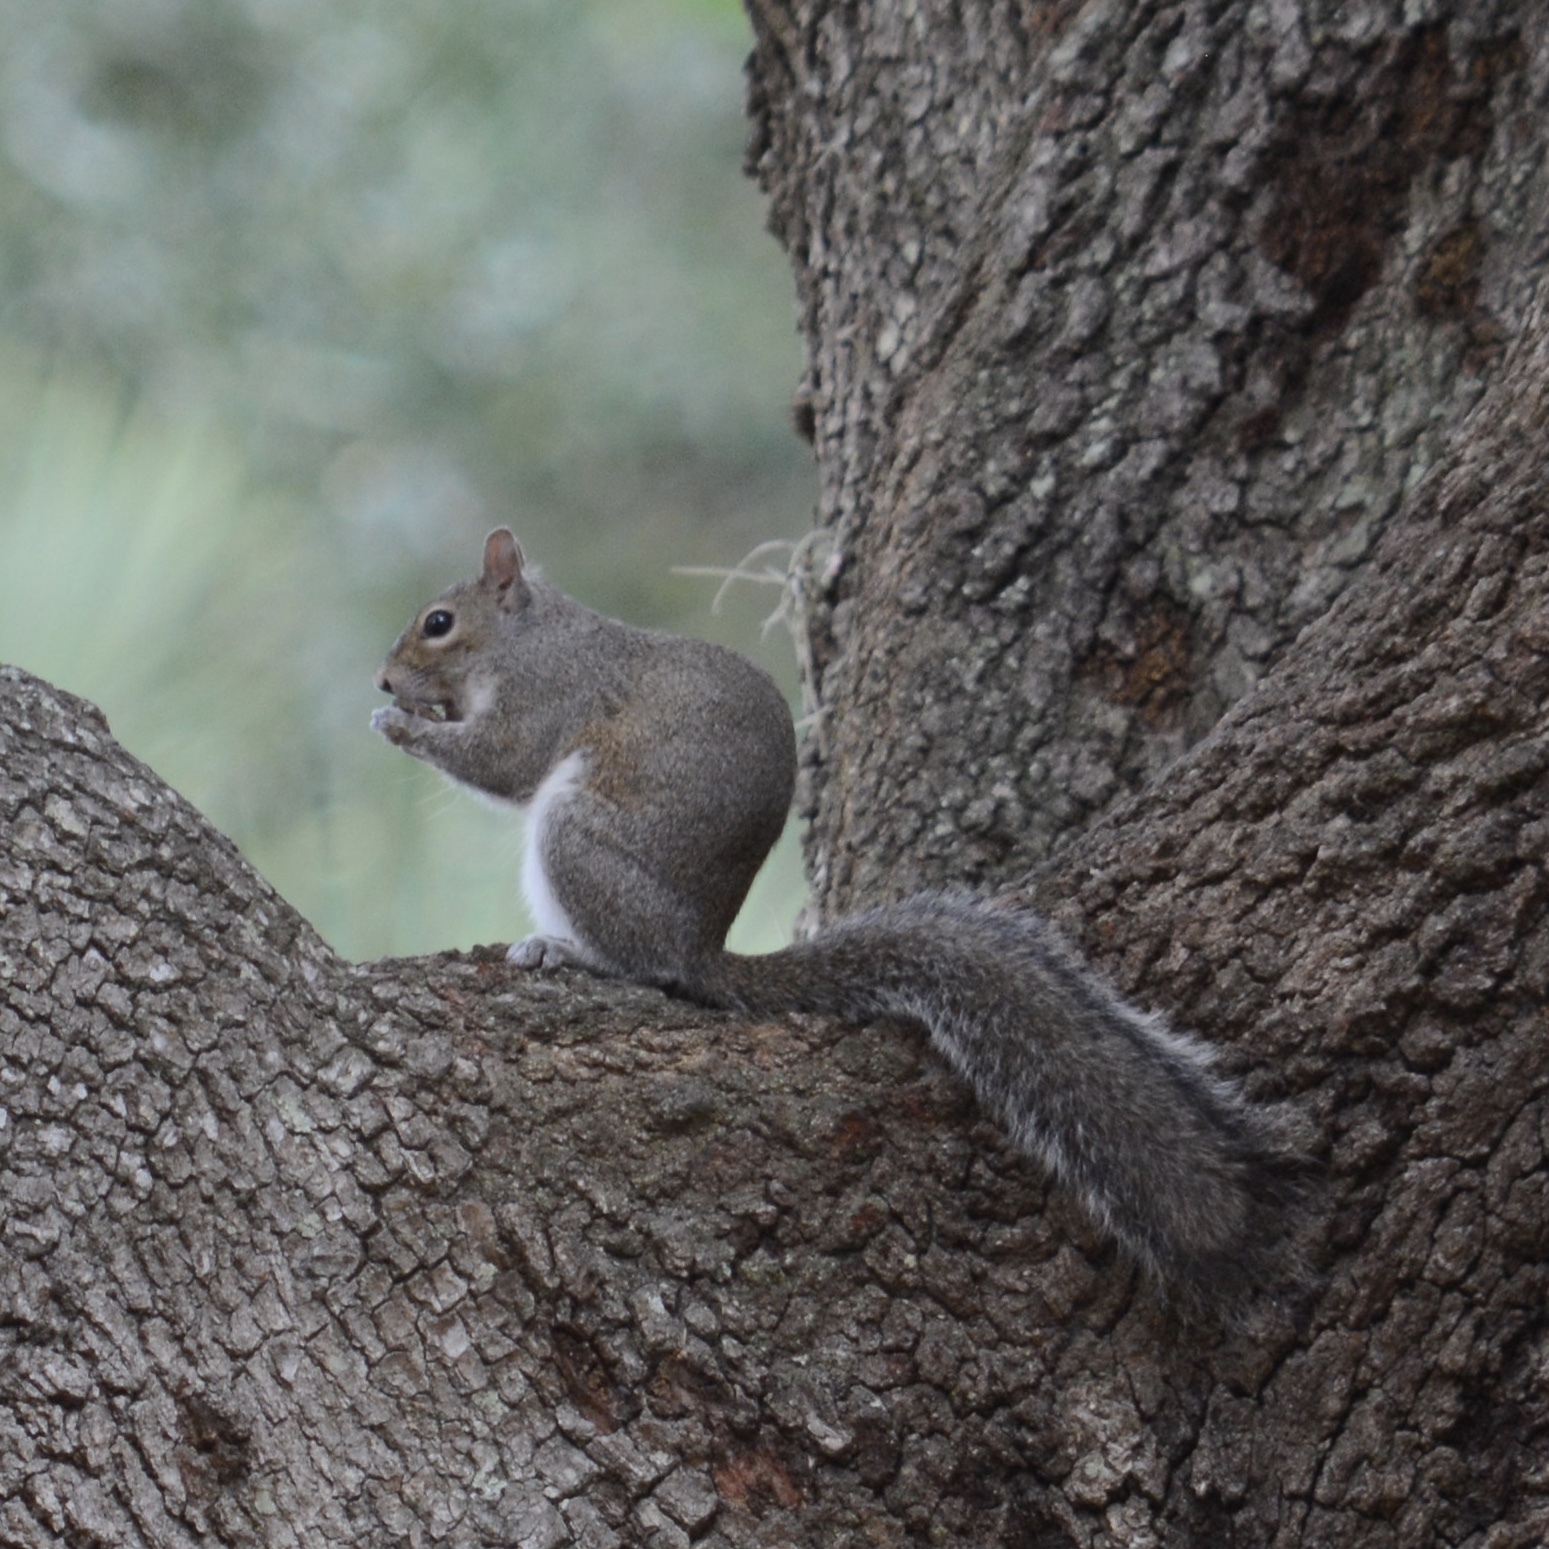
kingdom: Animalia
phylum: Chordata
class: Mammalia
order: Rodentia
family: Sciuridae
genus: Sciurus
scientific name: Sciurus carolinensis
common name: Eastern gray squirrel
